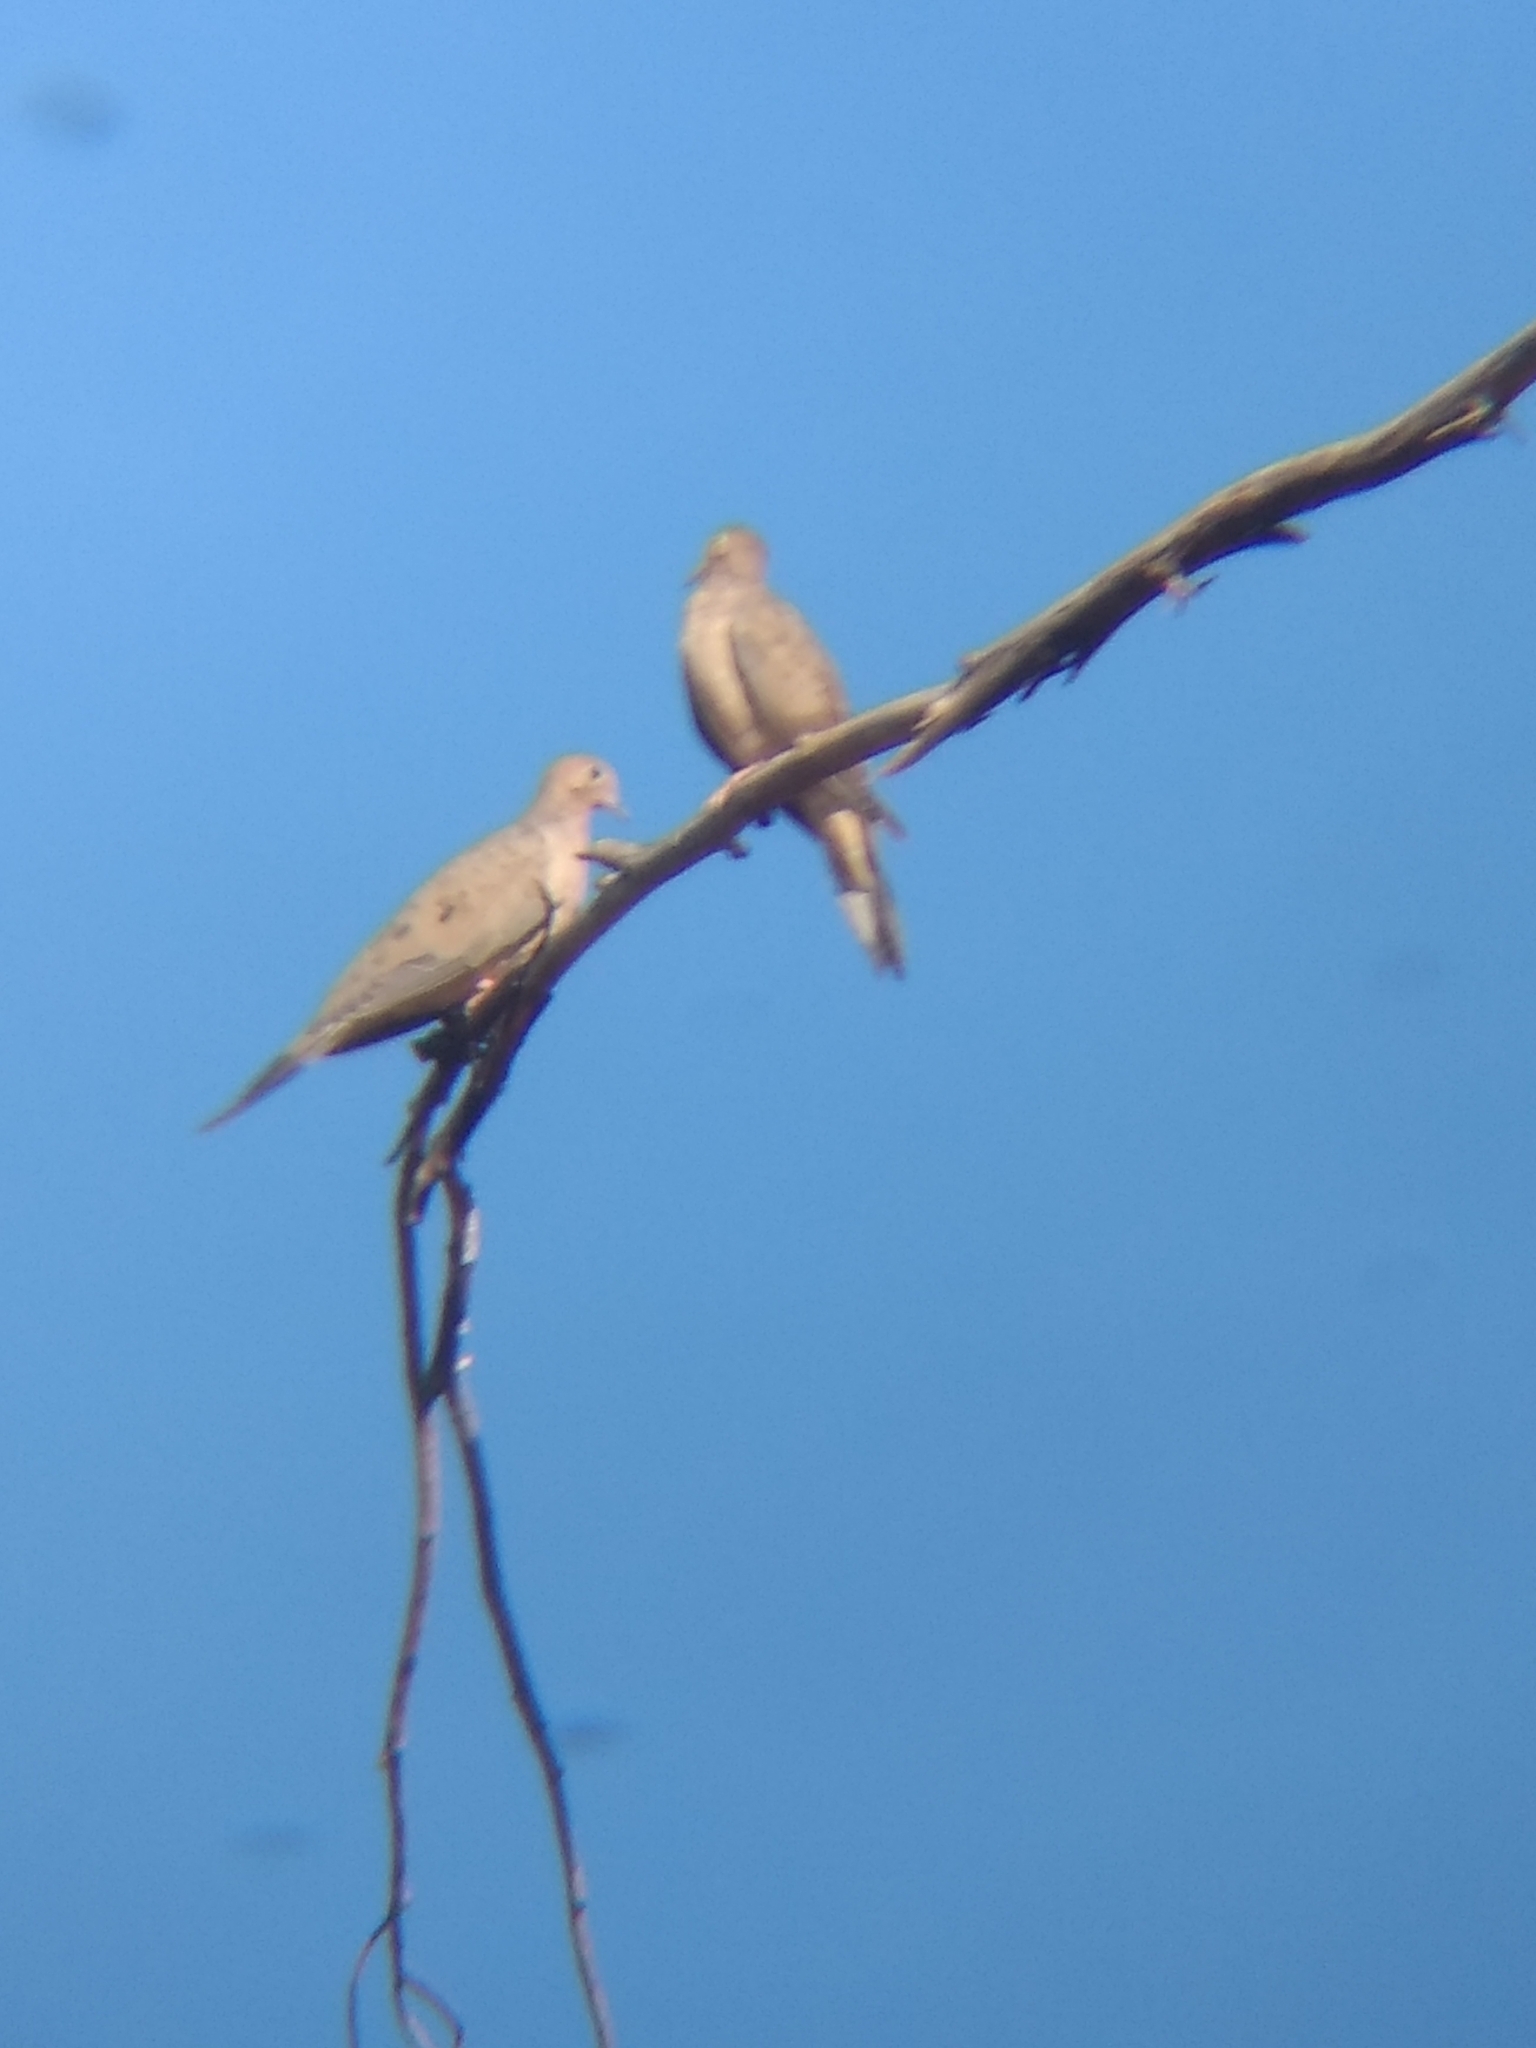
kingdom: Animalia
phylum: Chordata
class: Aves
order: Columbiformes
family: Columbidae
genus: Zenaida
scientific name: Zenaida macroura
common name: Mourning dove
